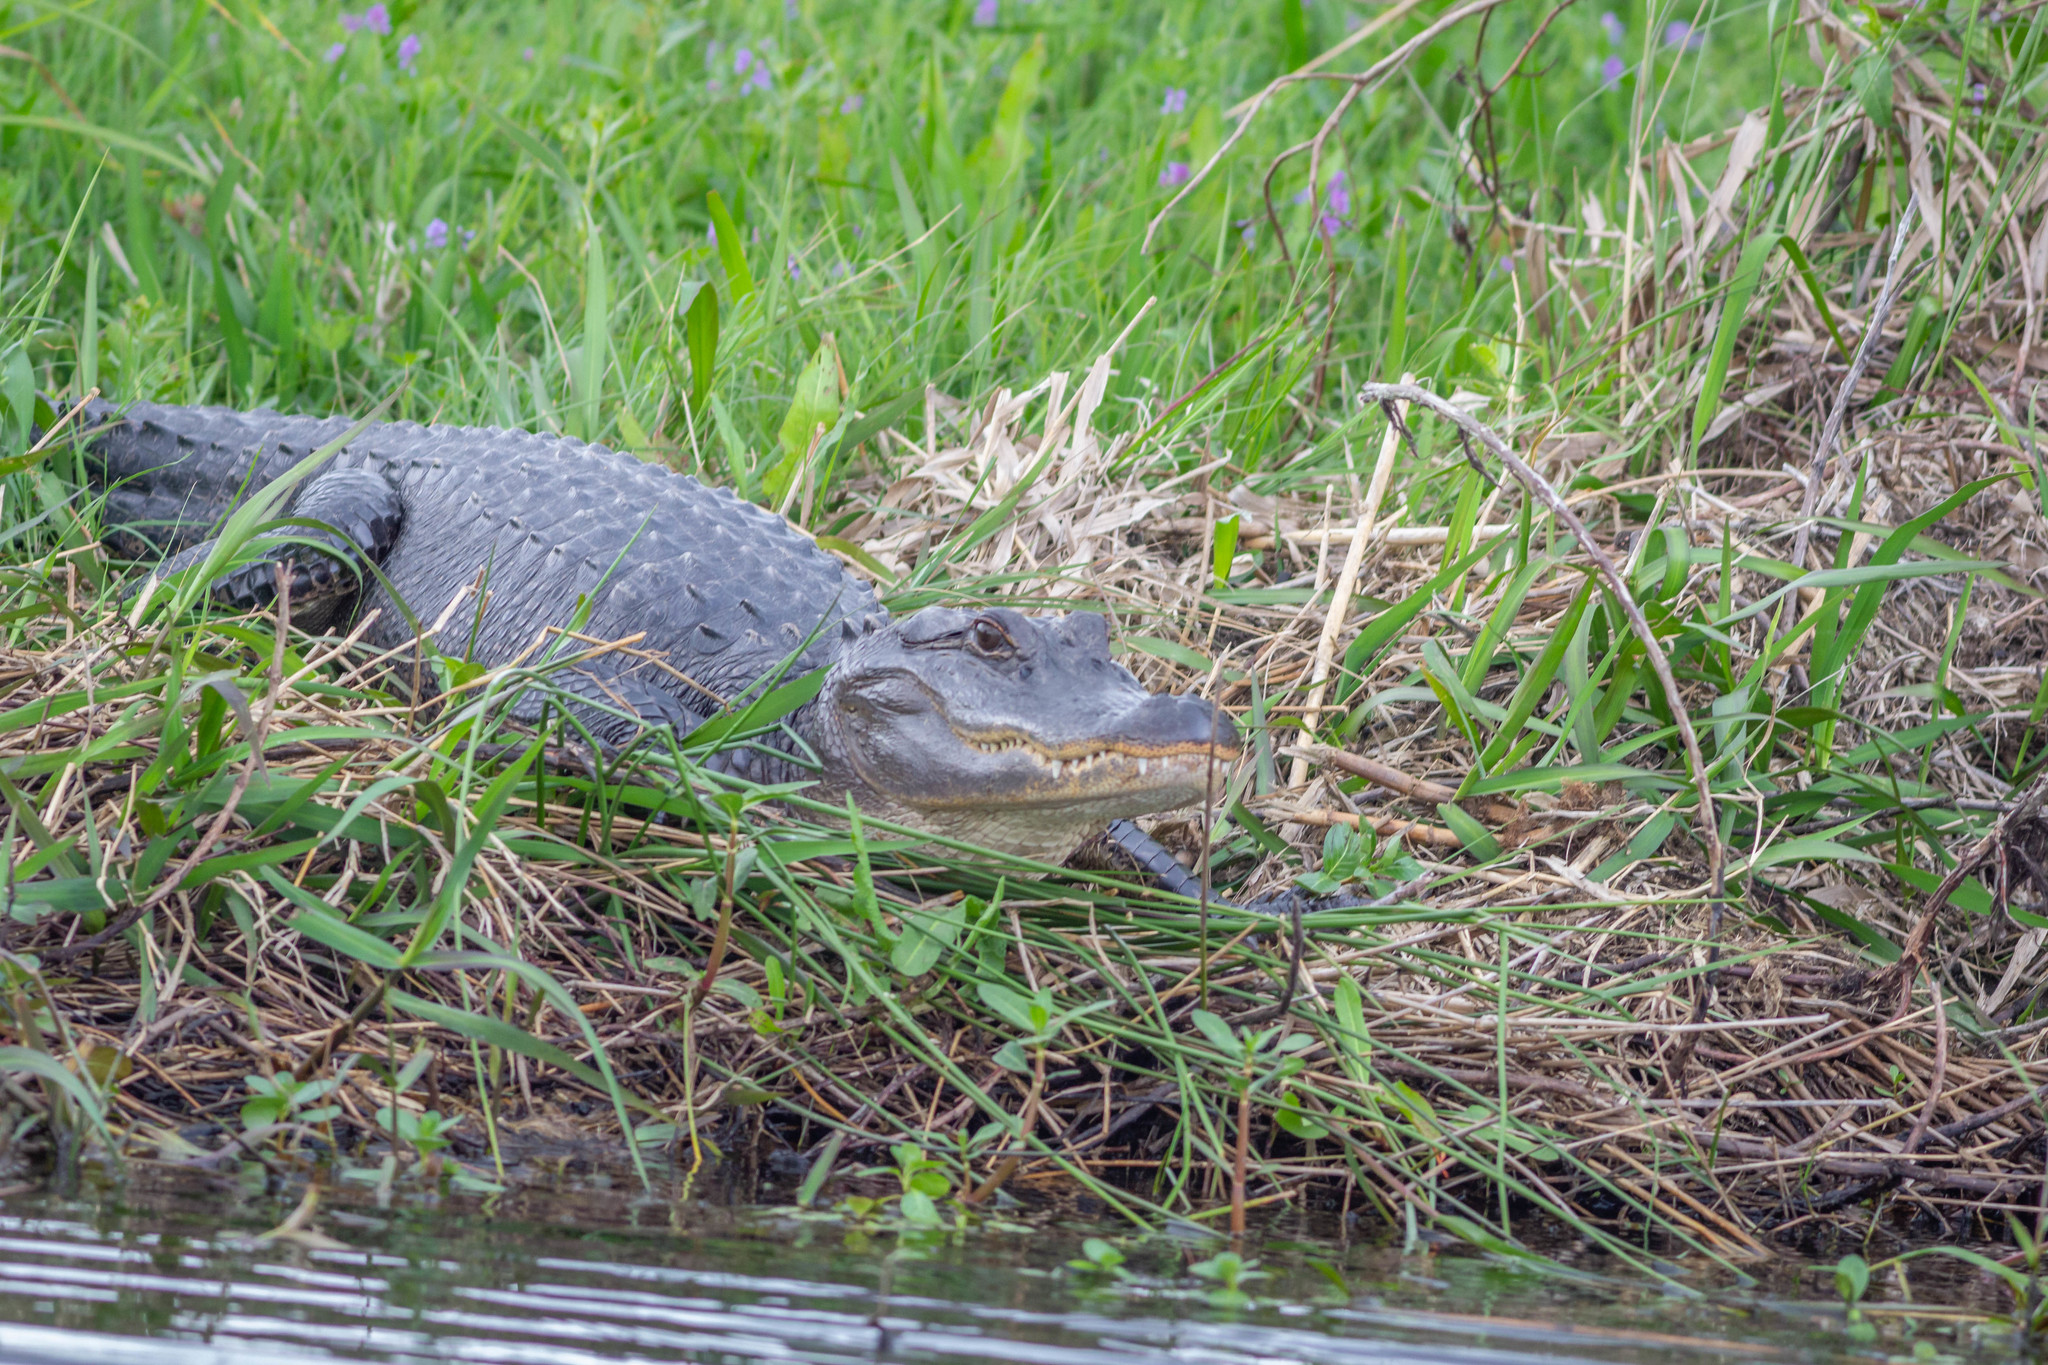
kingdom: Animalia
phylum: Chordata
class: Crocodylia
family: Alligatoridae
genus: Alligator
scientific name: Alligator mississippiensis
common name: American alligator
